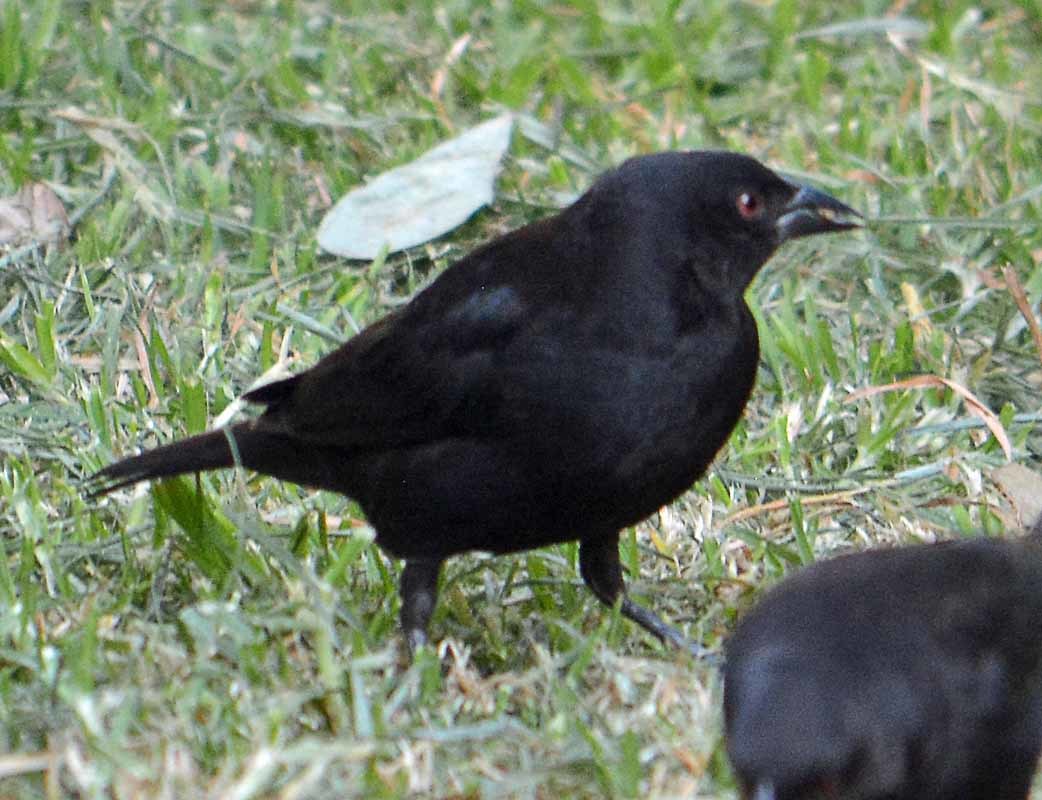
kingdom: Animalia
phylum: Chordata
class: Aves
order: Passeriformes
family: Icteridae
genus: Molothrus
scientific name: Molothrus aeneus
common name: Bronzed cowbird
